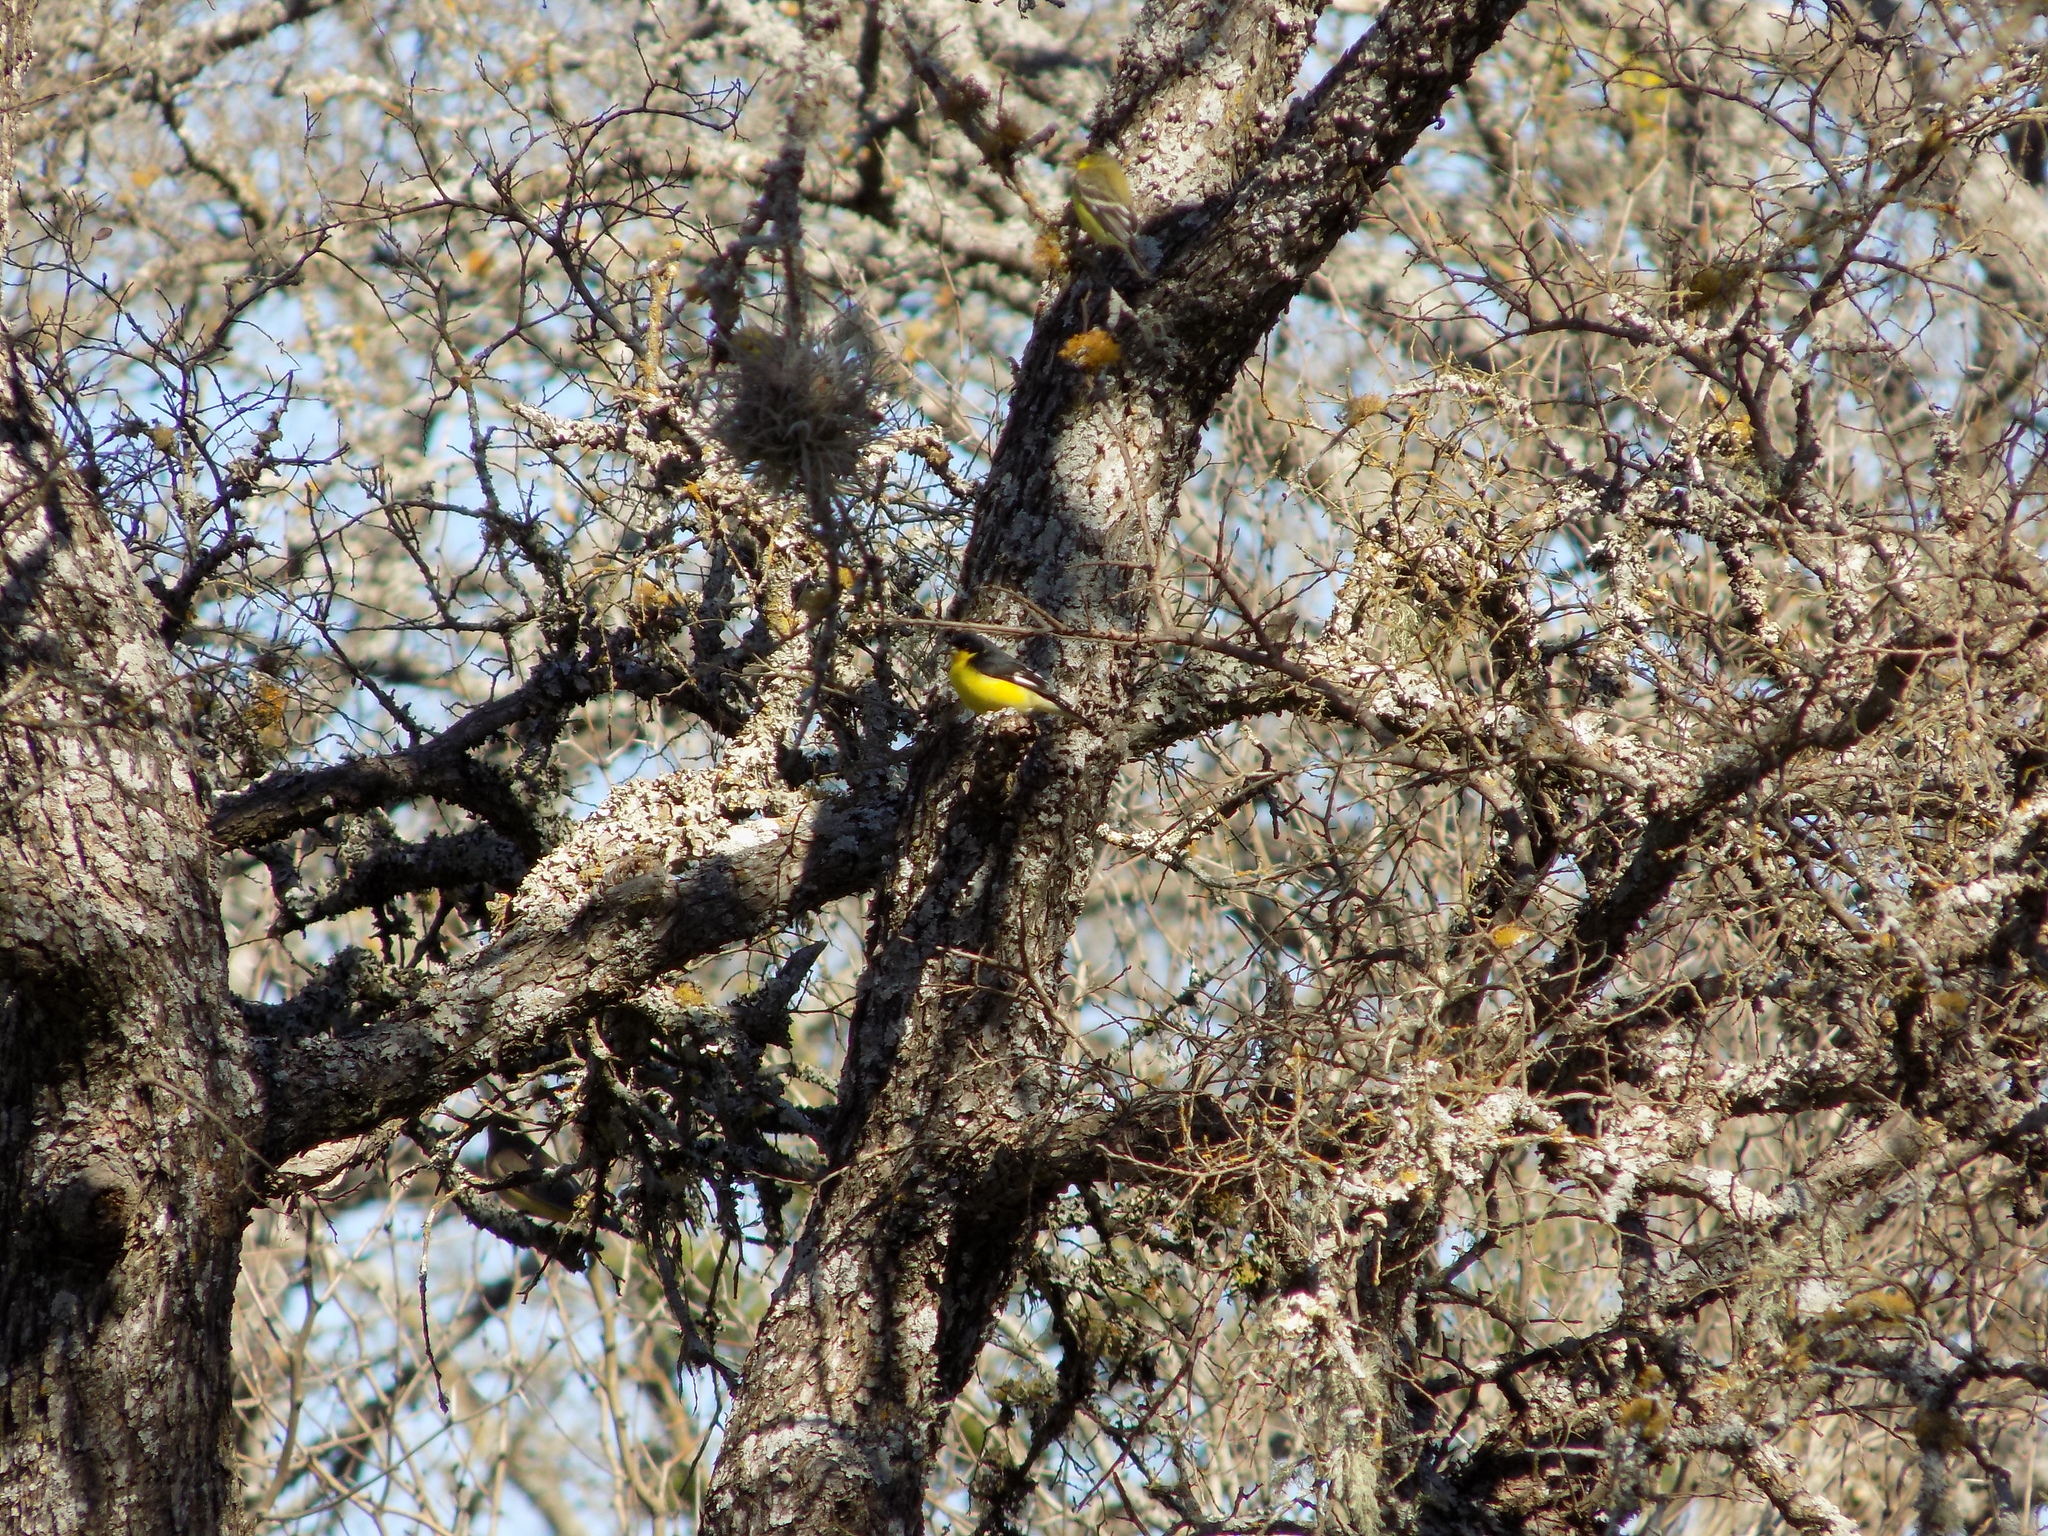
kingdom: Animalia
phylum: Chordata
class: Aves
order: Passeriformes
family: Fringillidae
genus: Spinus
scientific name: Spinus psaltria
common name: Lesser goldfinch
